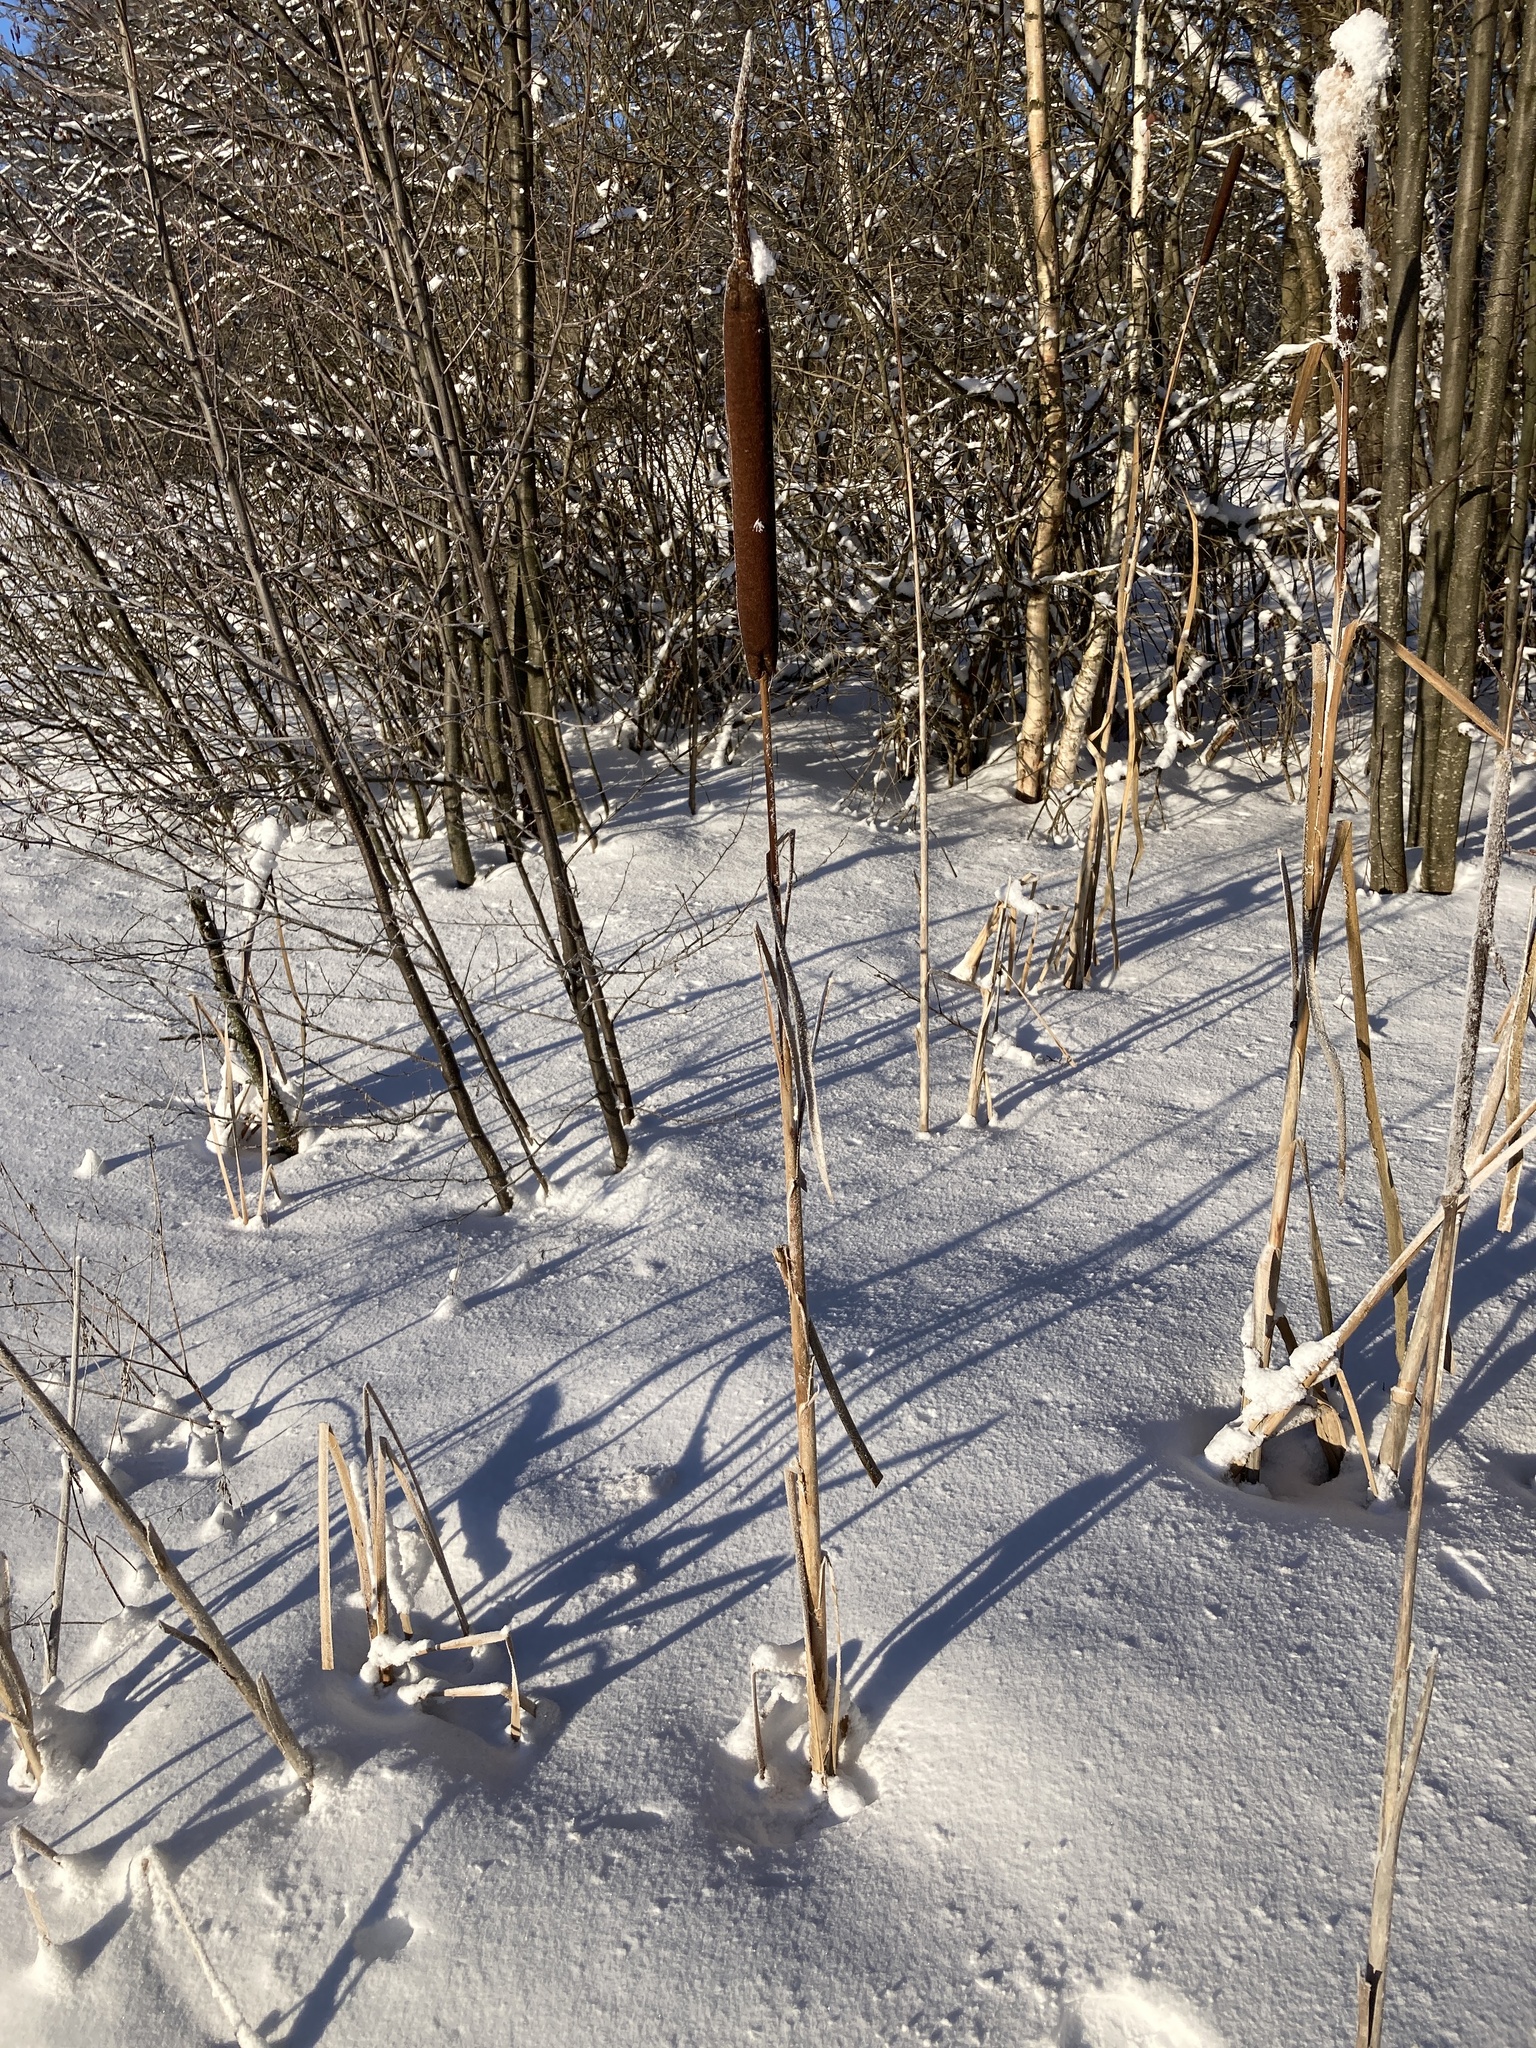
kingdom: Plantae
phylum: Tracheophyta
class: Liliopsida
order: Poales
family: Typhaceae
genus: Typha
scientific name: Typha latifolia
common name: Broadleaf cattail
